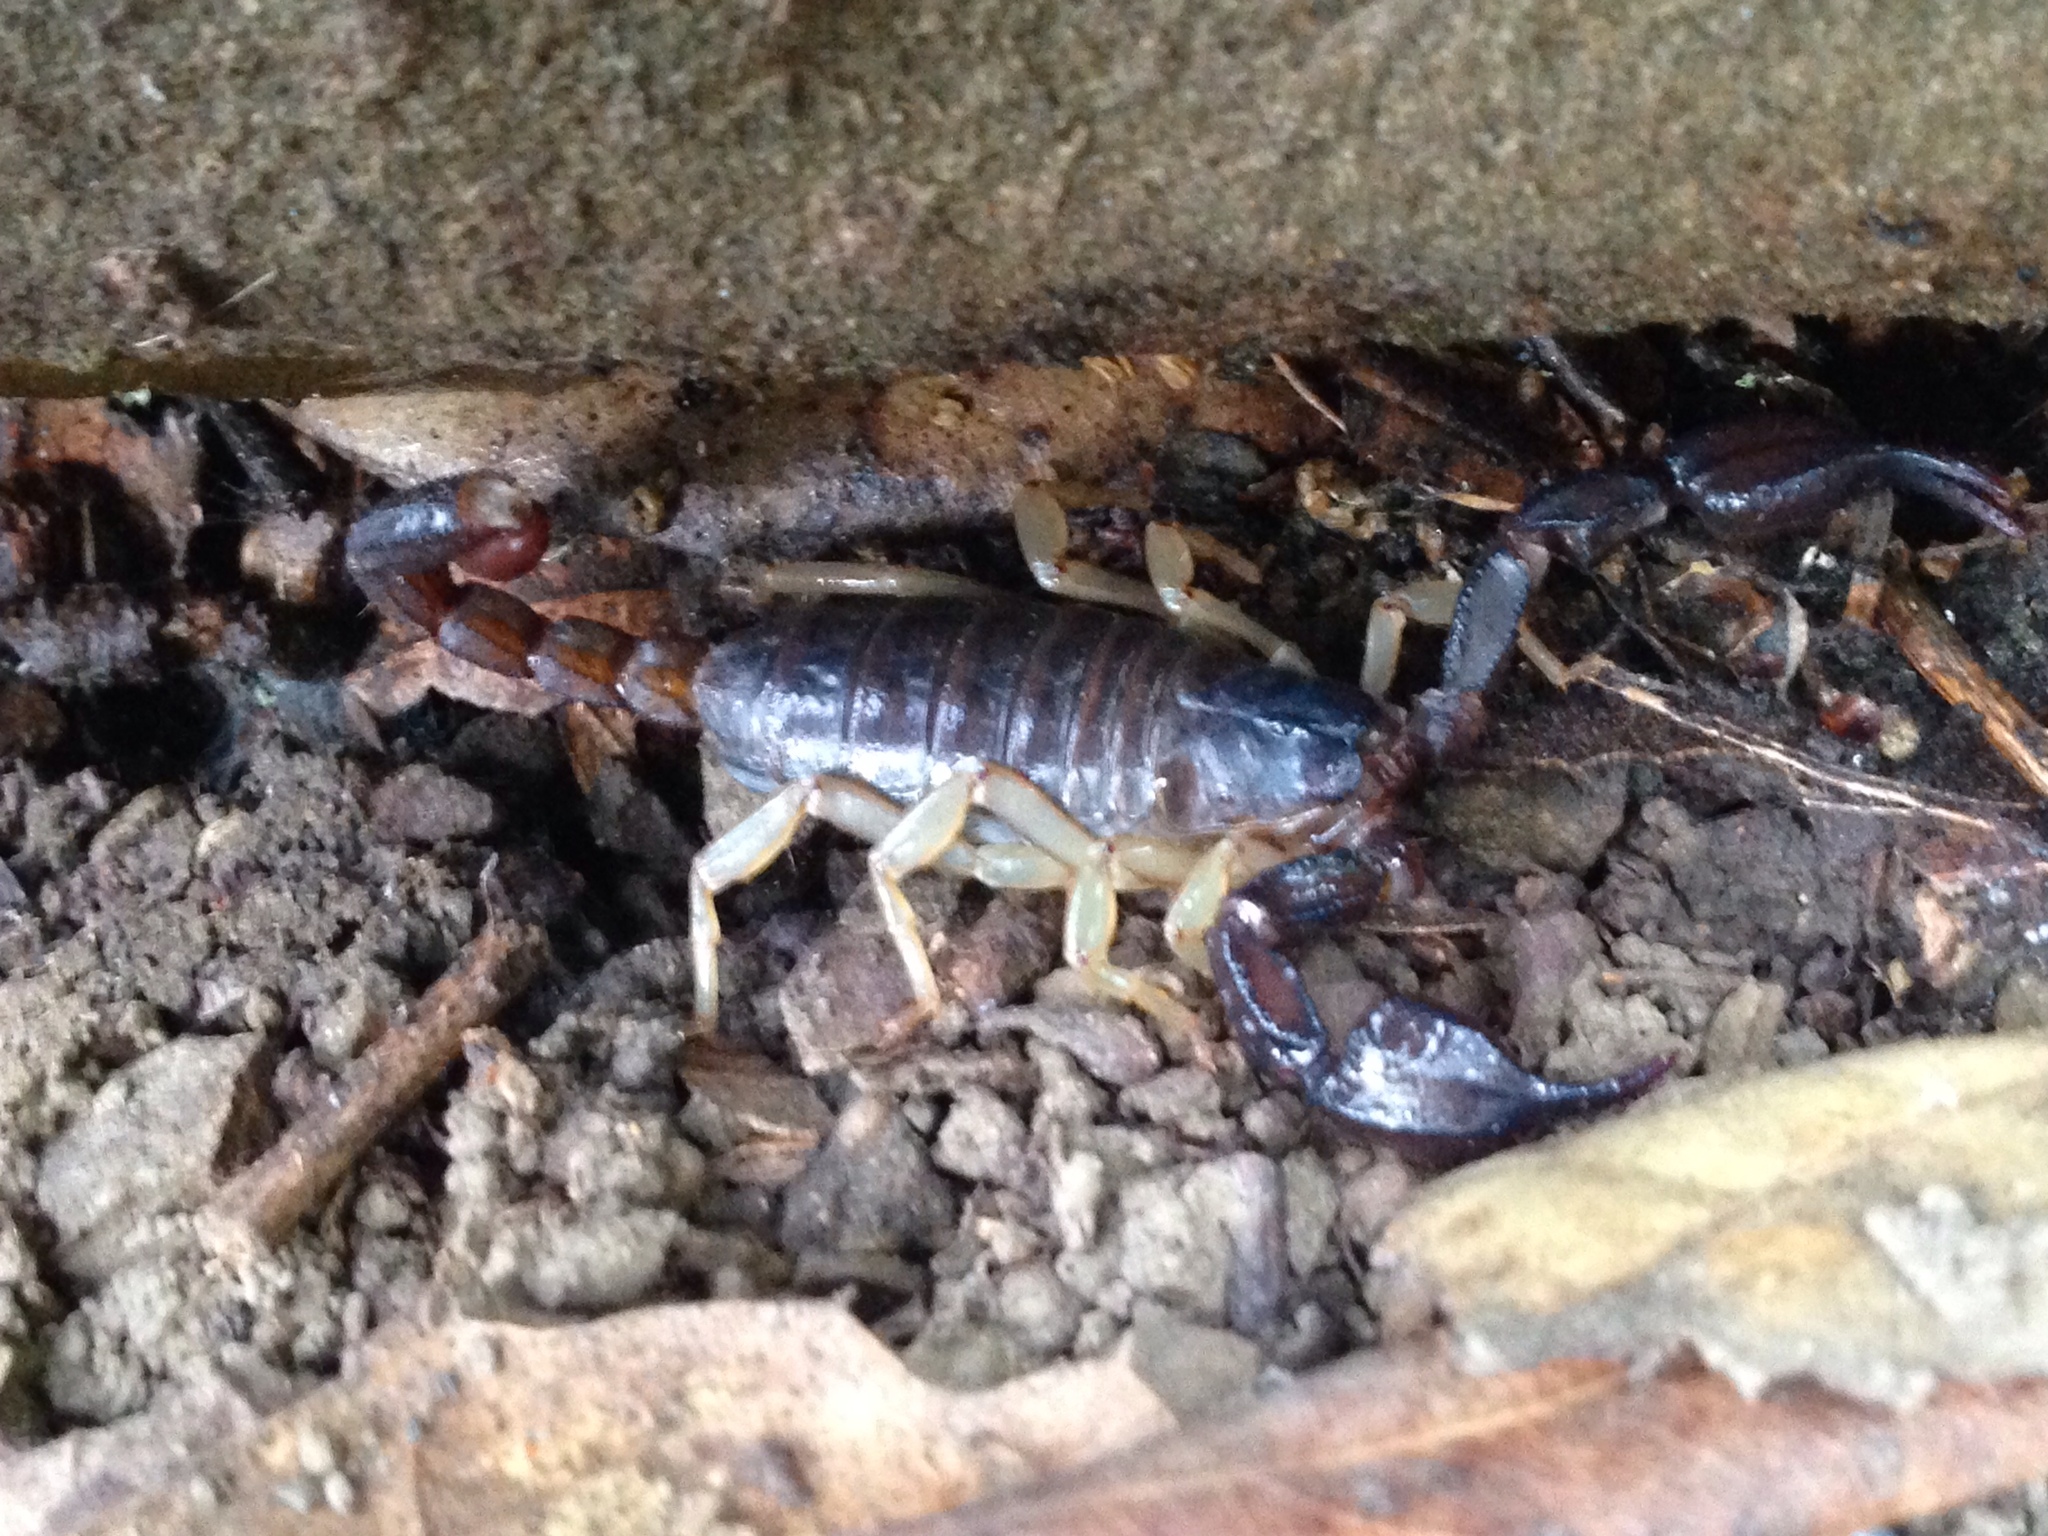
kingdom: Animalia
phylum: Arthropoda
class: Arachnida
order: Scorpiones
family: Chactidae
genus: Uroctonus
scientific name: Uroctonus mordax
